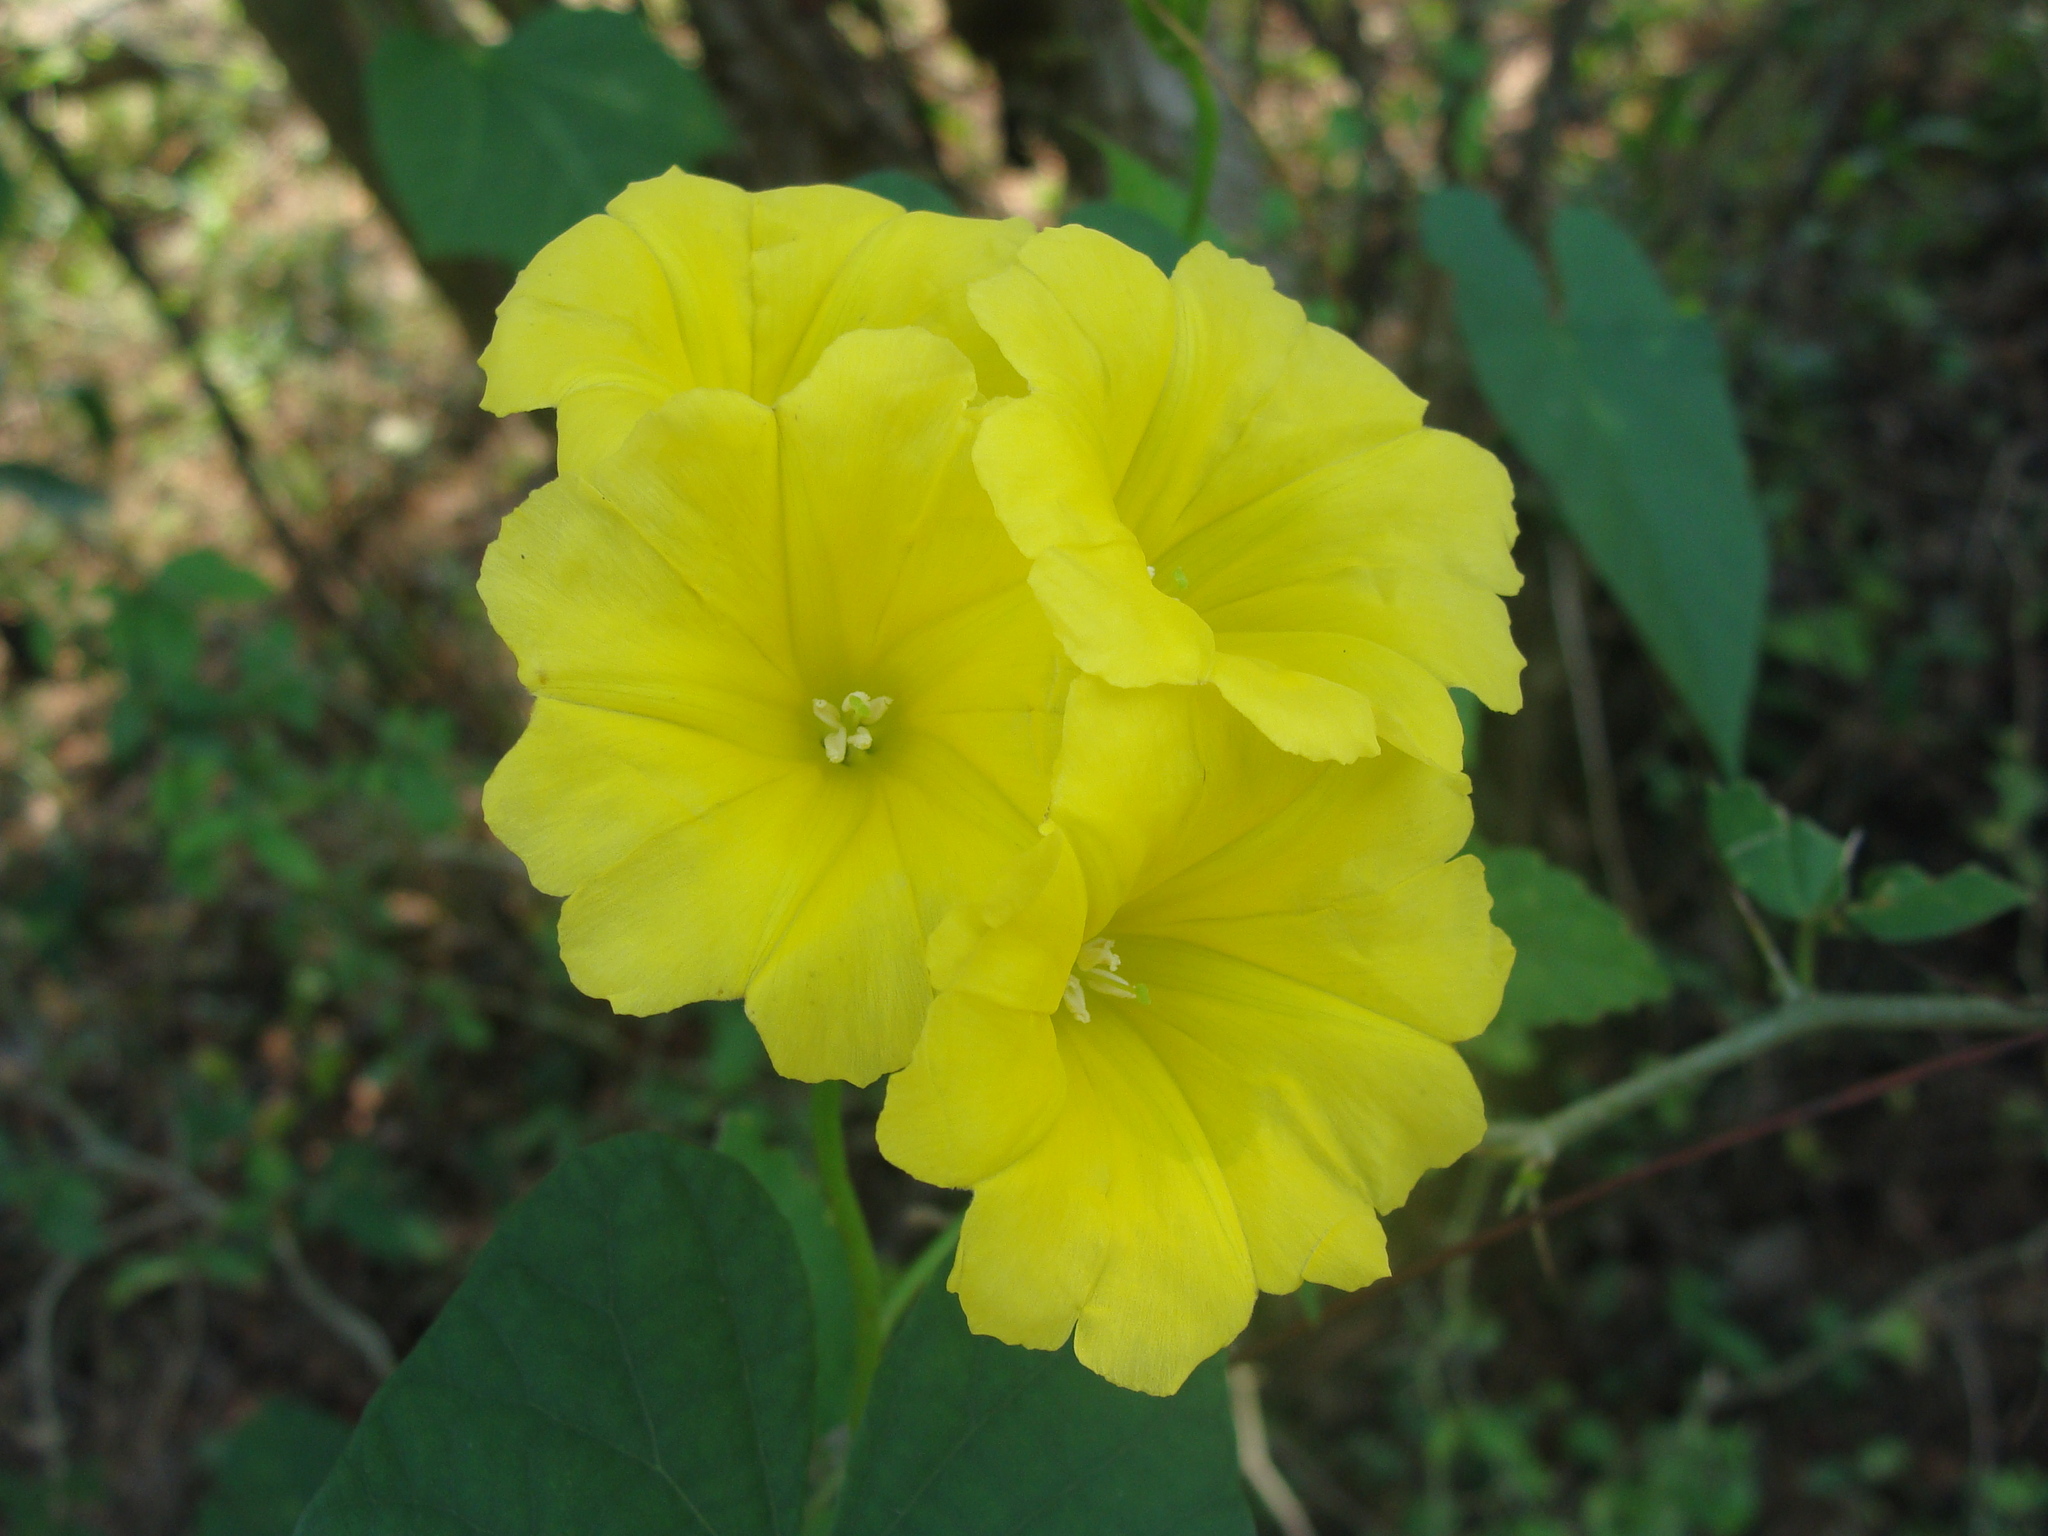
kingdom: Plantae
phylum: Tracheophyta
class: Magnoliopsida
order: Solanales
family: Convolvulaceae
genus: Camonea
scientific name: Camonea umbellata
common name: Hogvine
